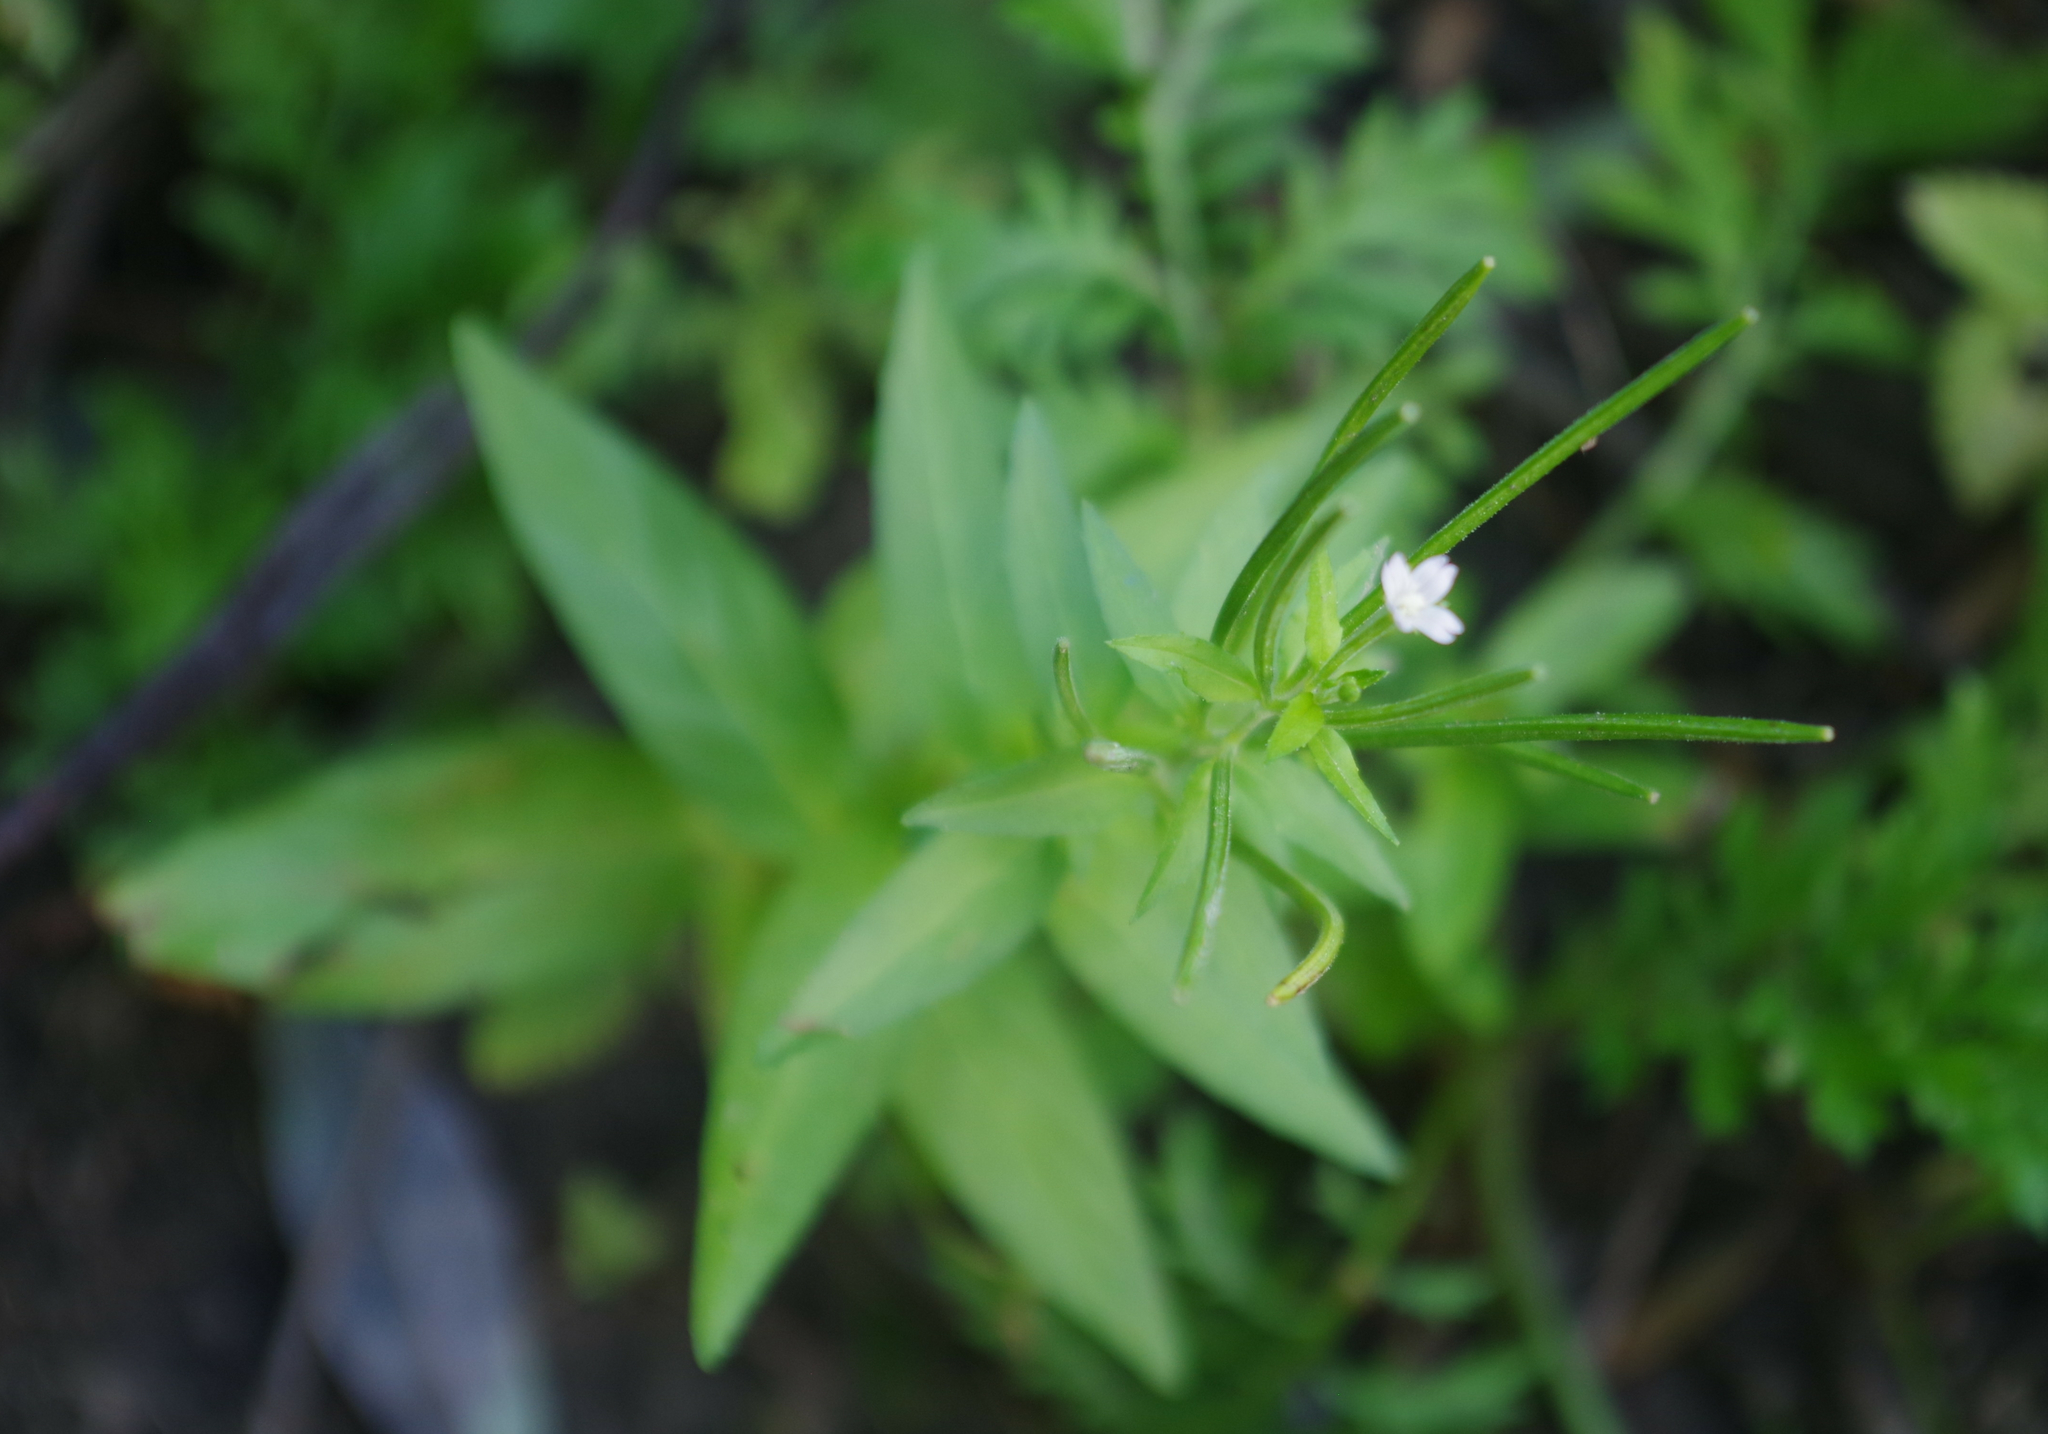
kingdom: Plantae
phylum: Tracheophyta
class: Magnoliopsida
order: Myrtales
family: Onagraceae
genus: Epilobium
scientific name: Epilobium ciliatum
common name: American willowherb
